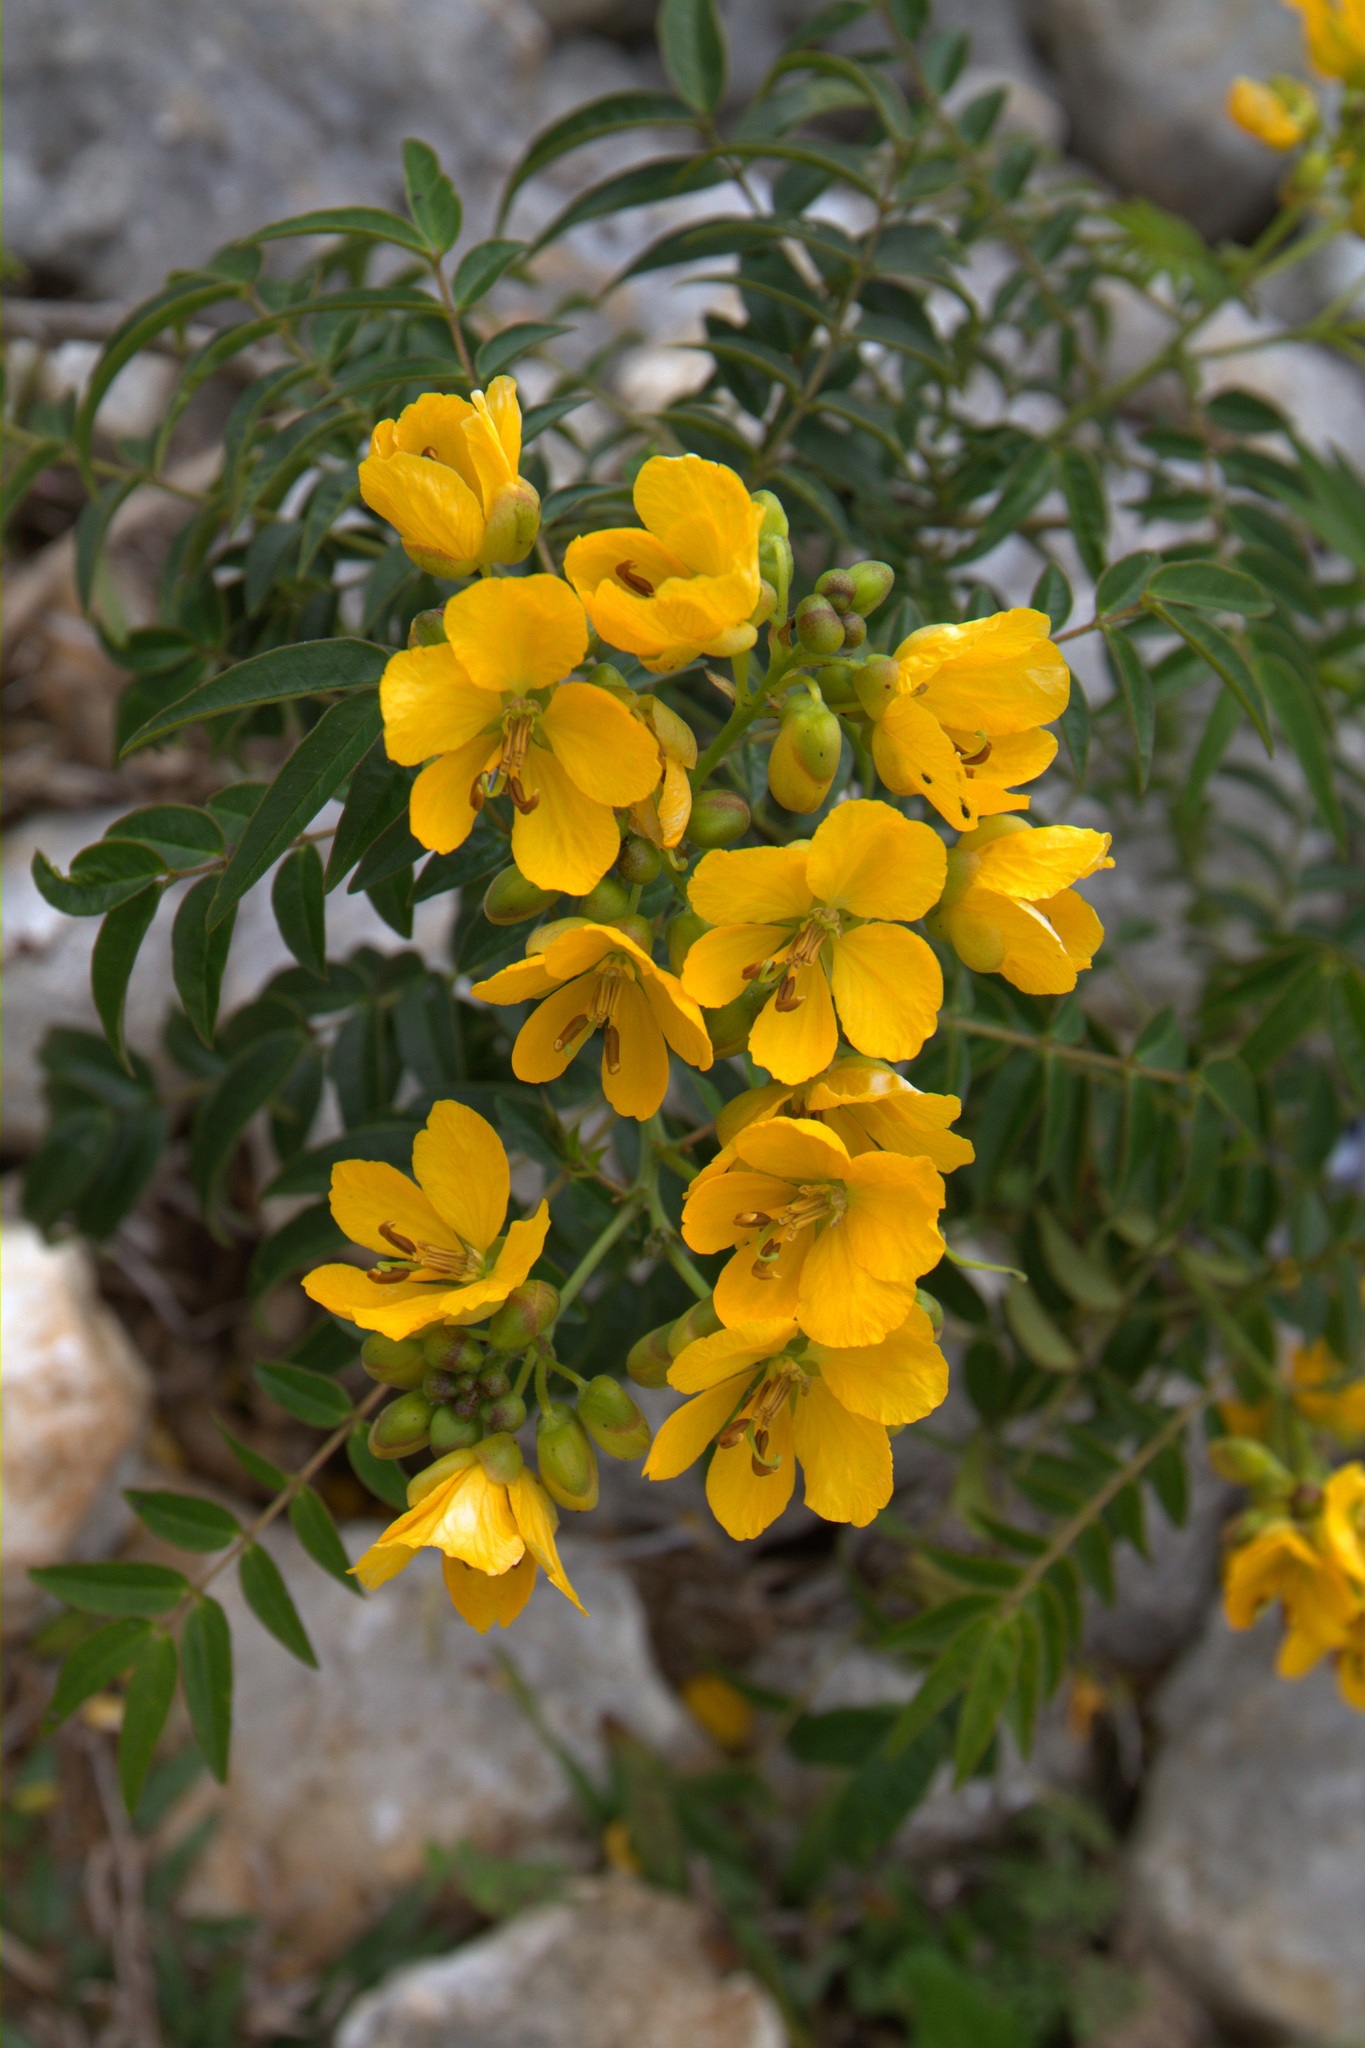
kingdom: Plantae
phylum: Tracheophyta
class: Magnoliopsida
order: Fabales
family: Fabaceae
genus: Senna
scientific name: Senna ligustrina
